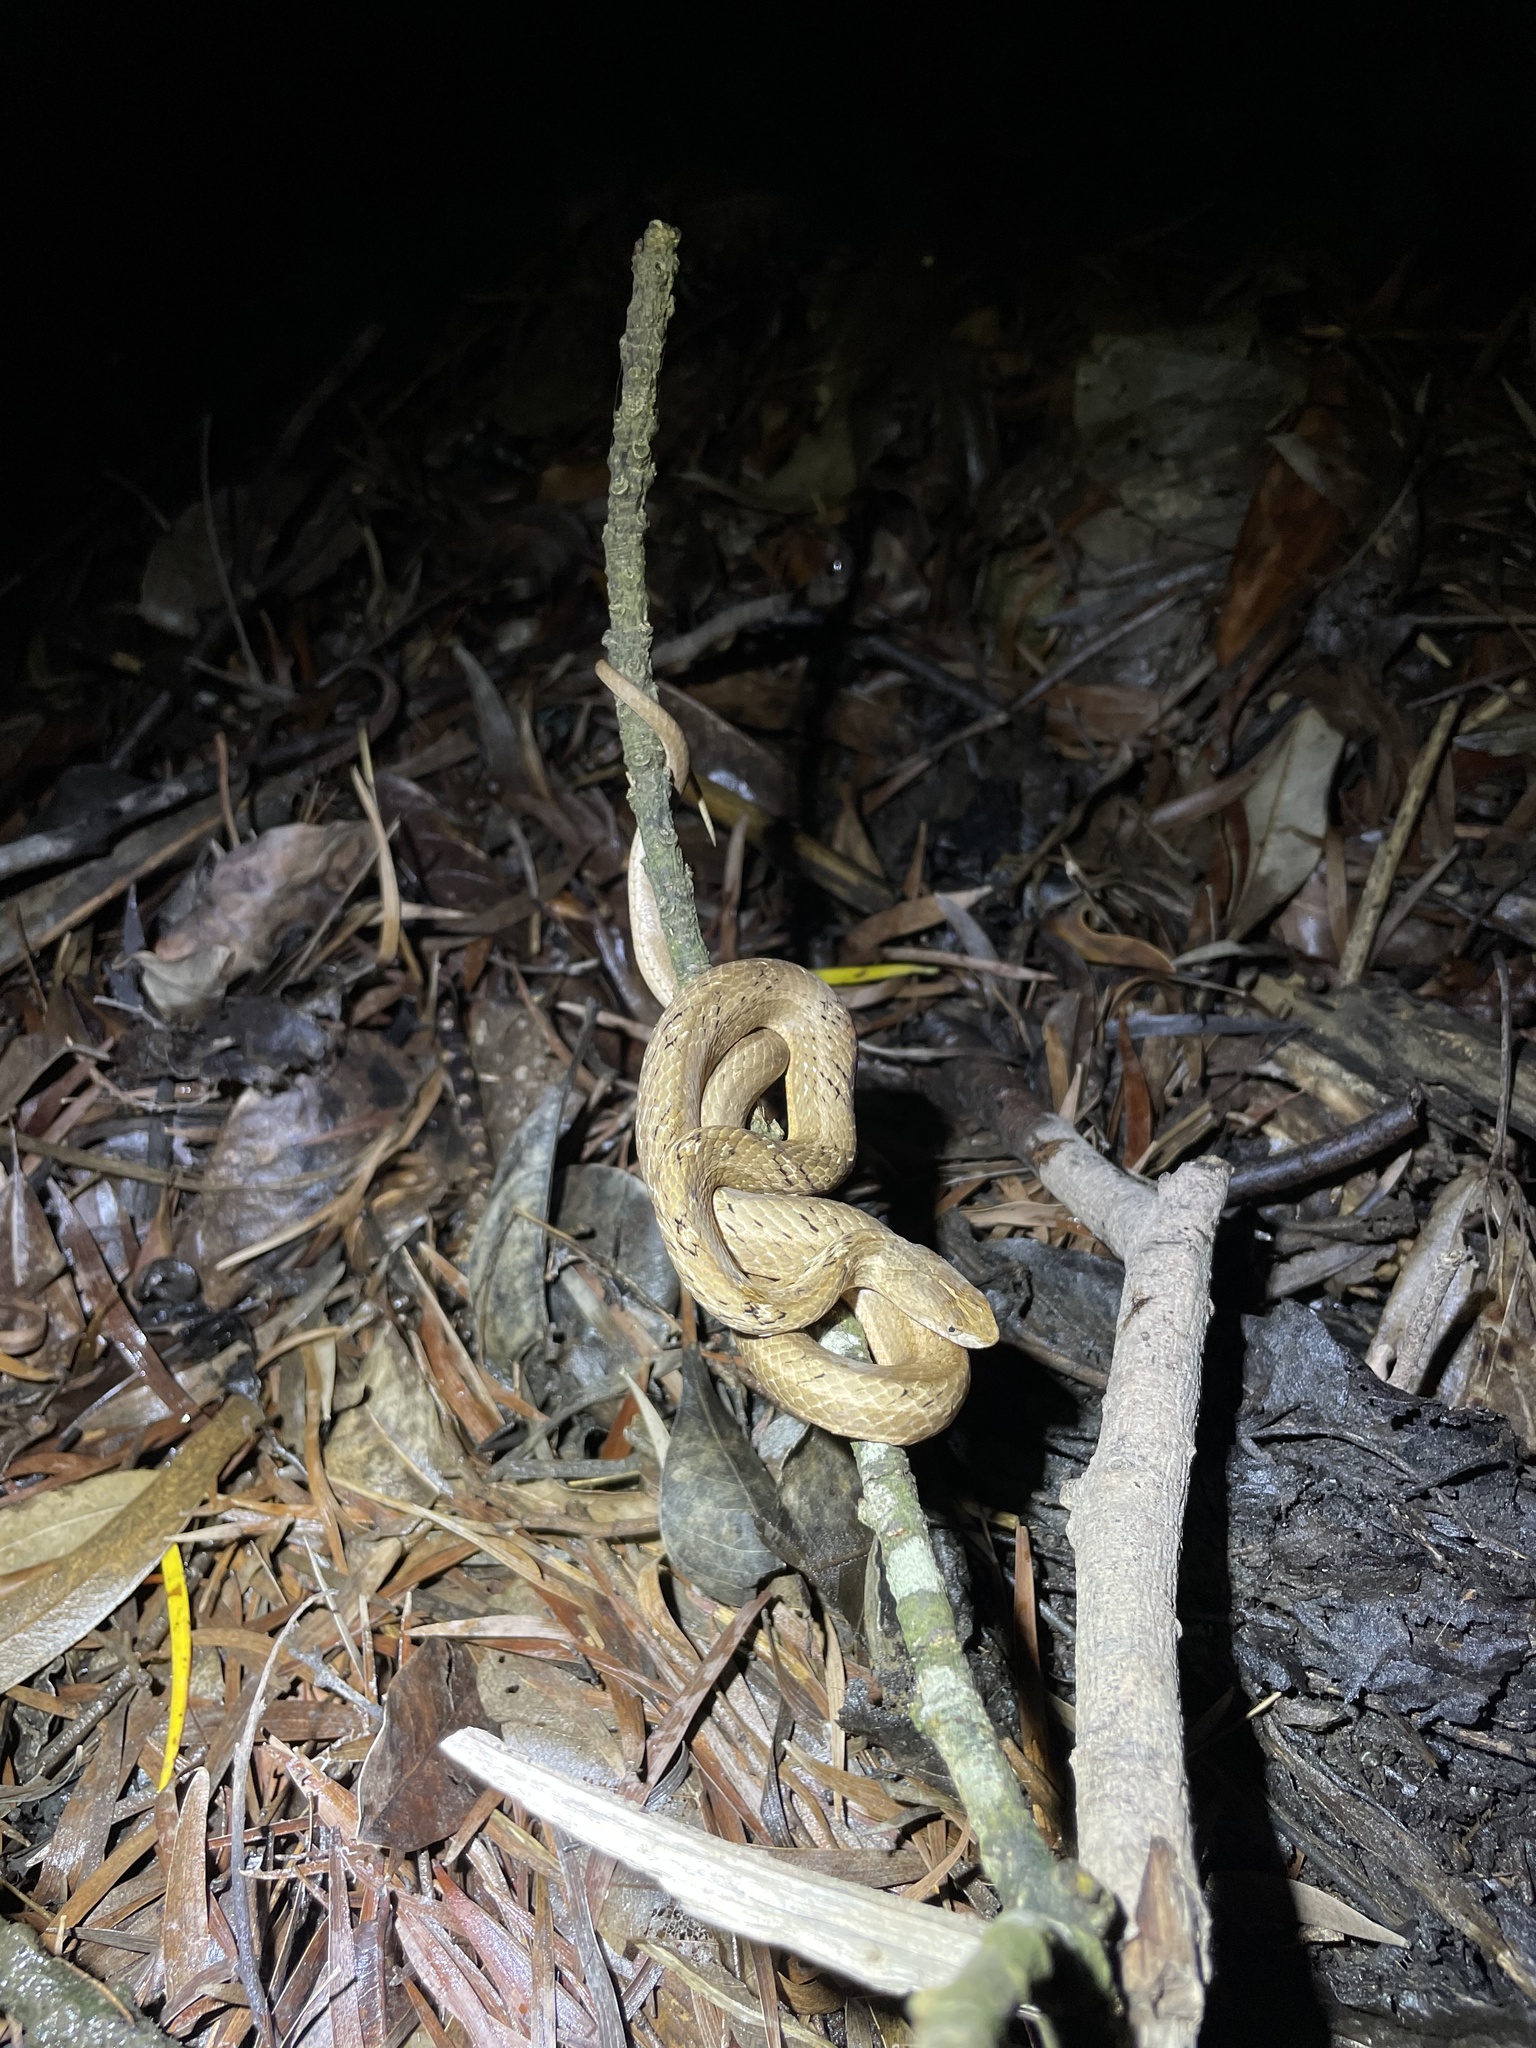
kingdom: Animalia
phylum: Chordata
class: Squamata
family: Pseudaspididae
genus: Psammodynastes
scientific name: Psammodynastes pulverulentus
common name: Common mock viper
